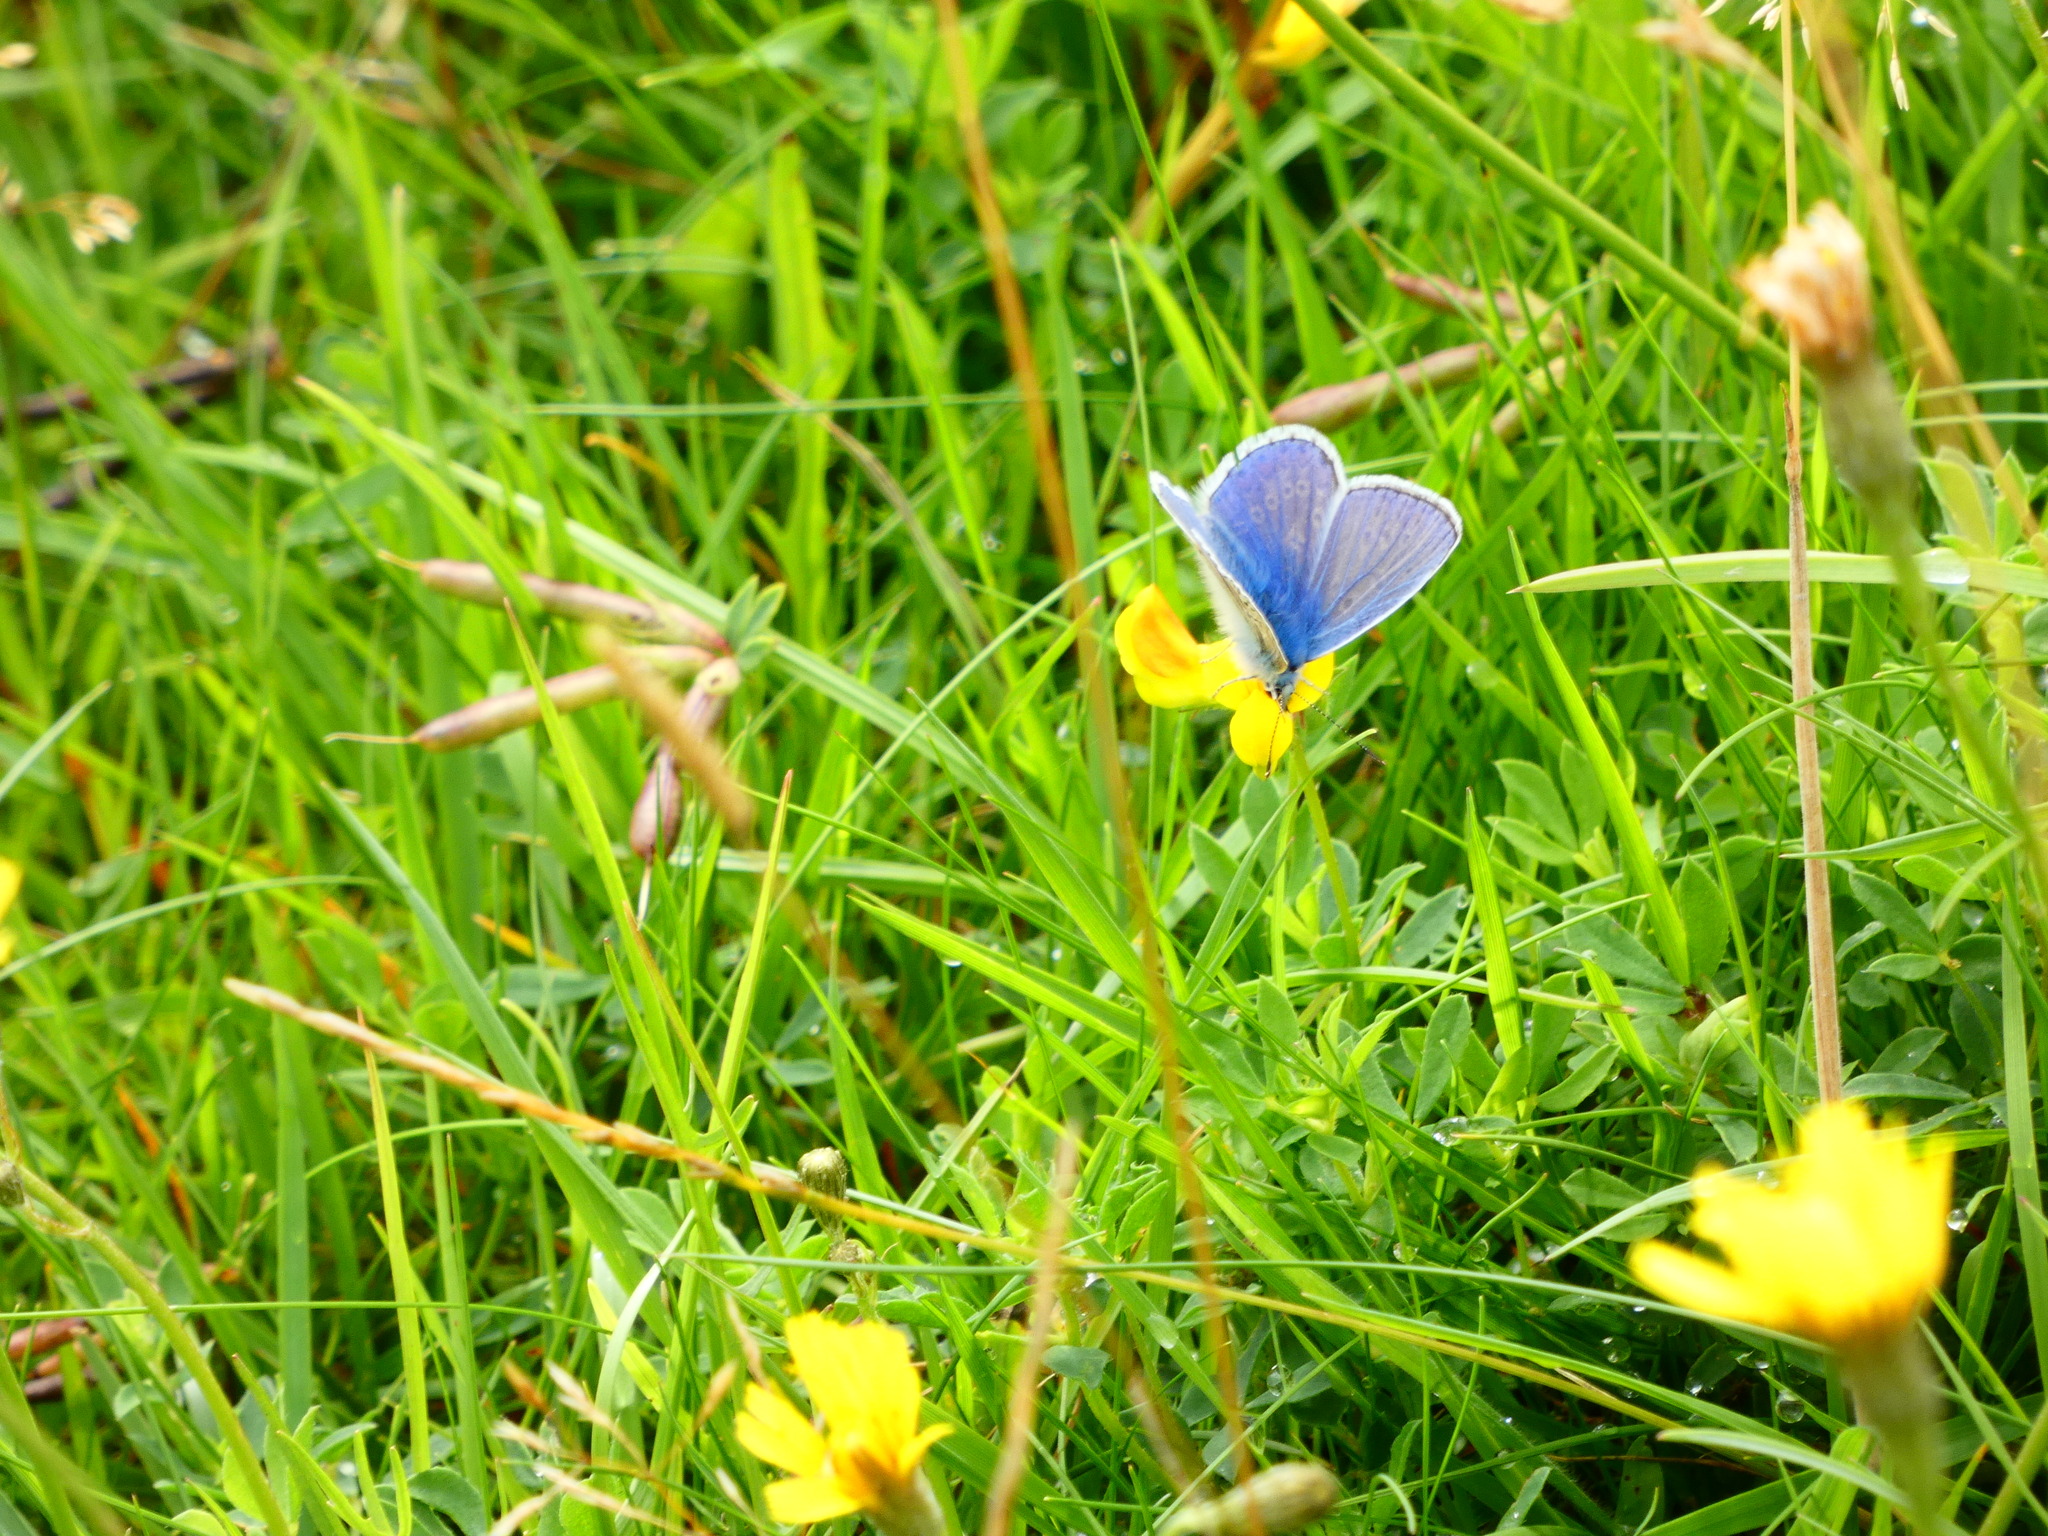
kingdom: Animalia
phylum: Arthropoda
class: Insecta
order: Lepidoptera
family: Lycaenidae
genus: Polyommatus
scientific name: Polyommatus icarus
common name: Common blue
